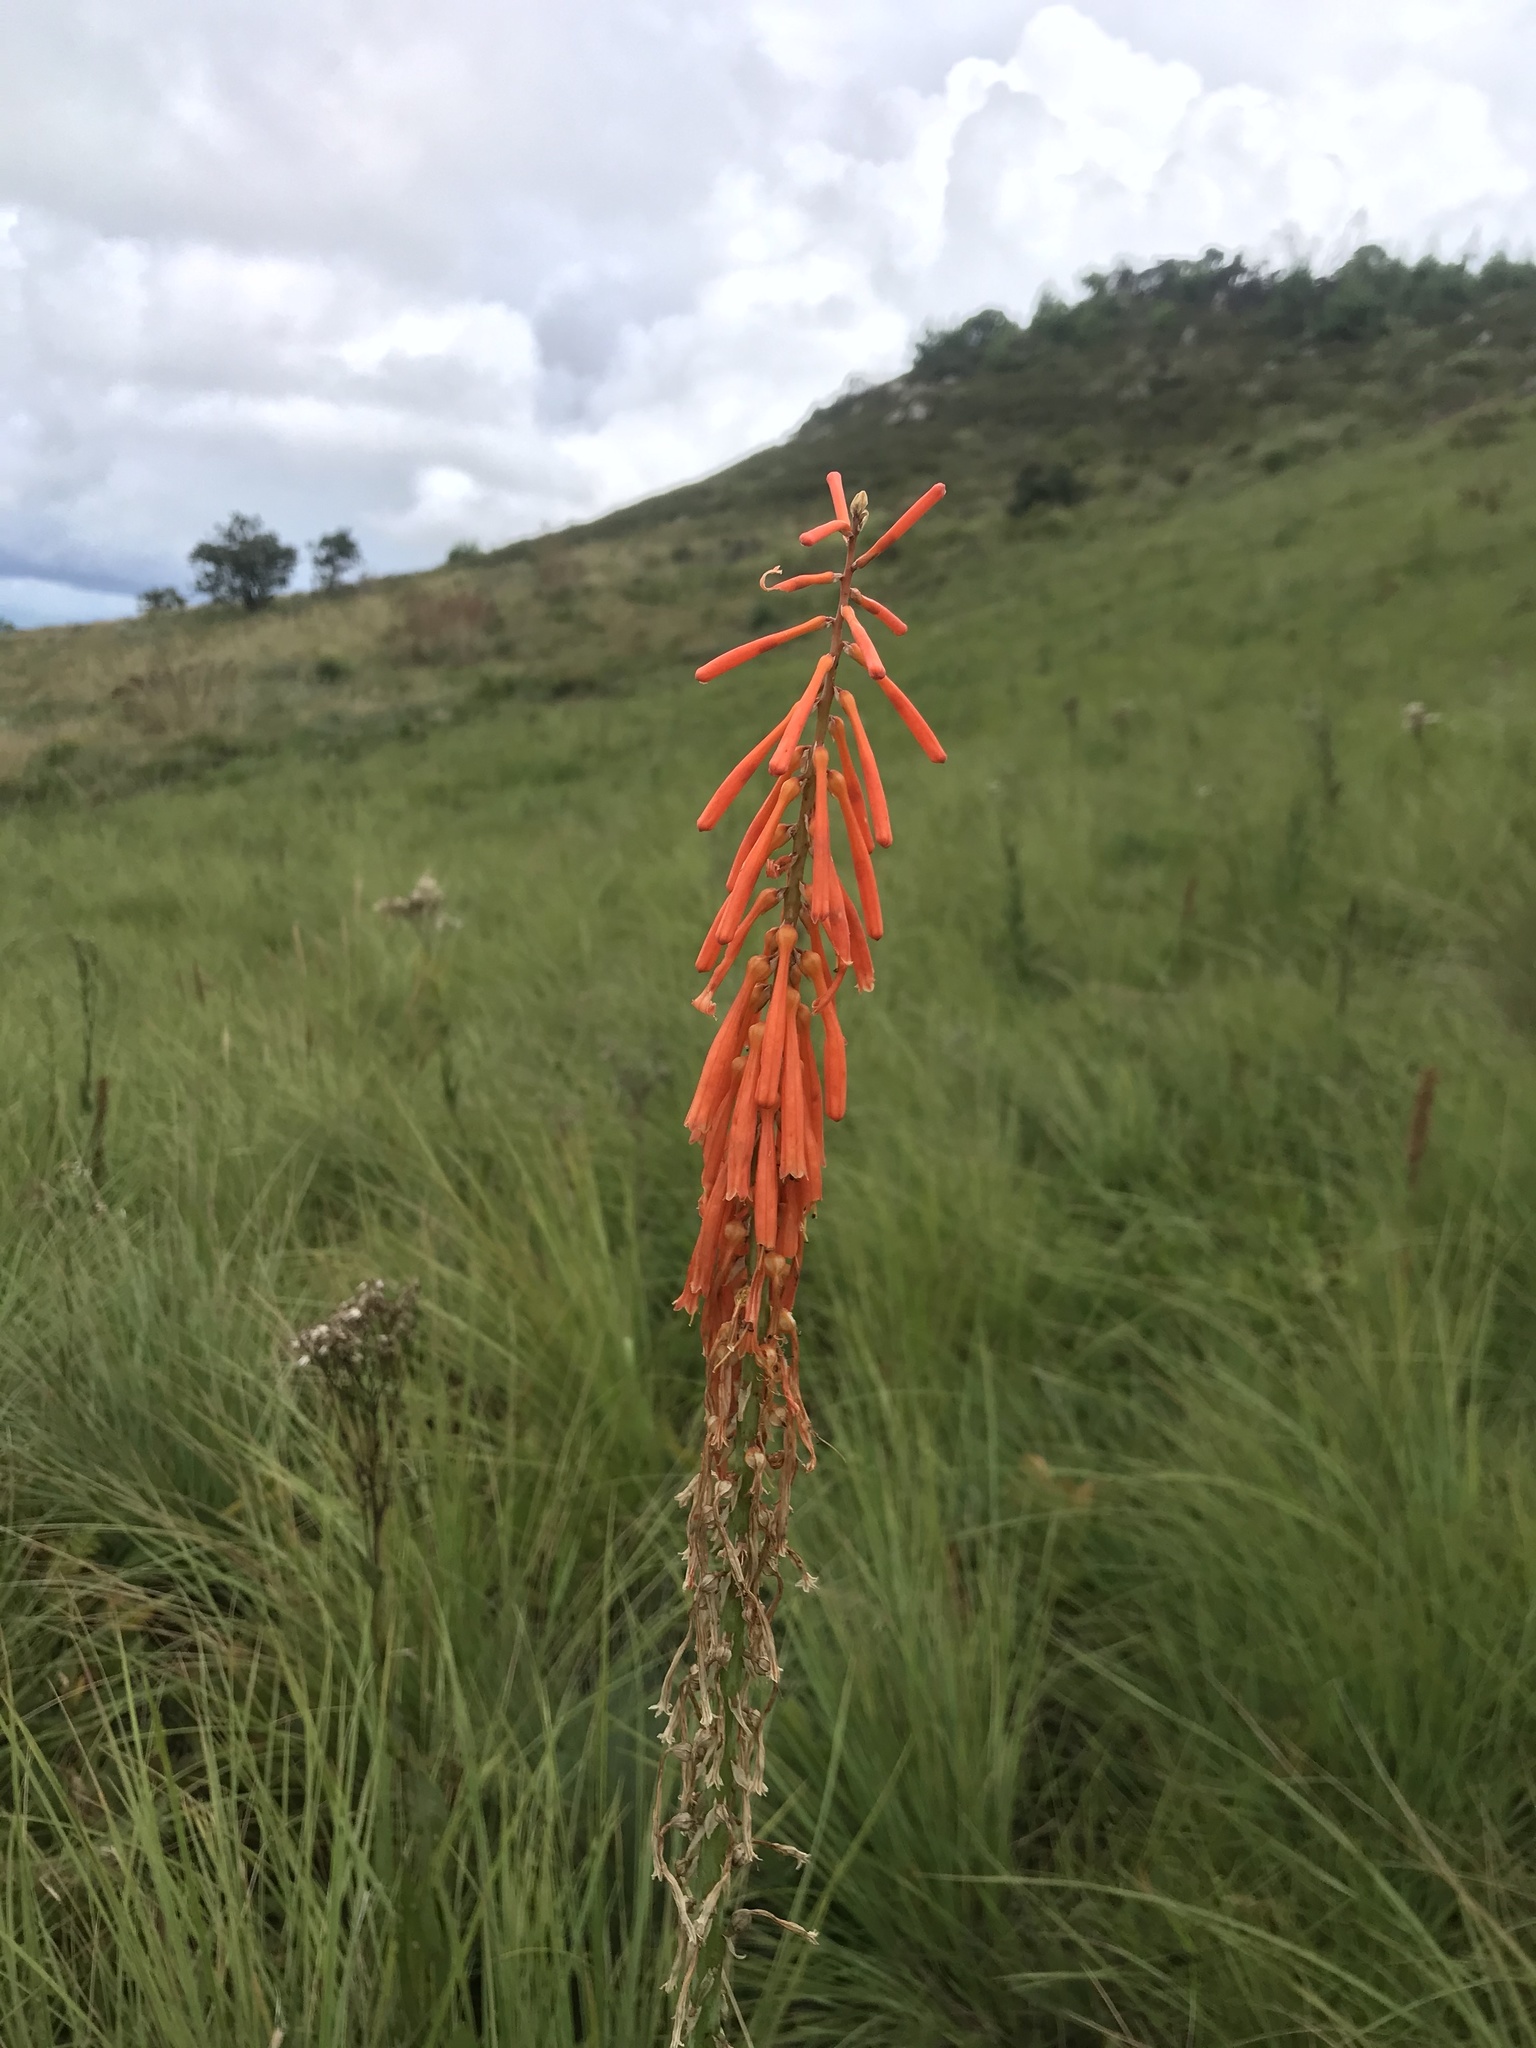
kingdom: Plantae
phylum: Tracheophyta
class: Liliopsida
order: Asparagales
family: Asphodelaceae
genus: Kniphofia
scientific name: Kniphofia laxiflora
